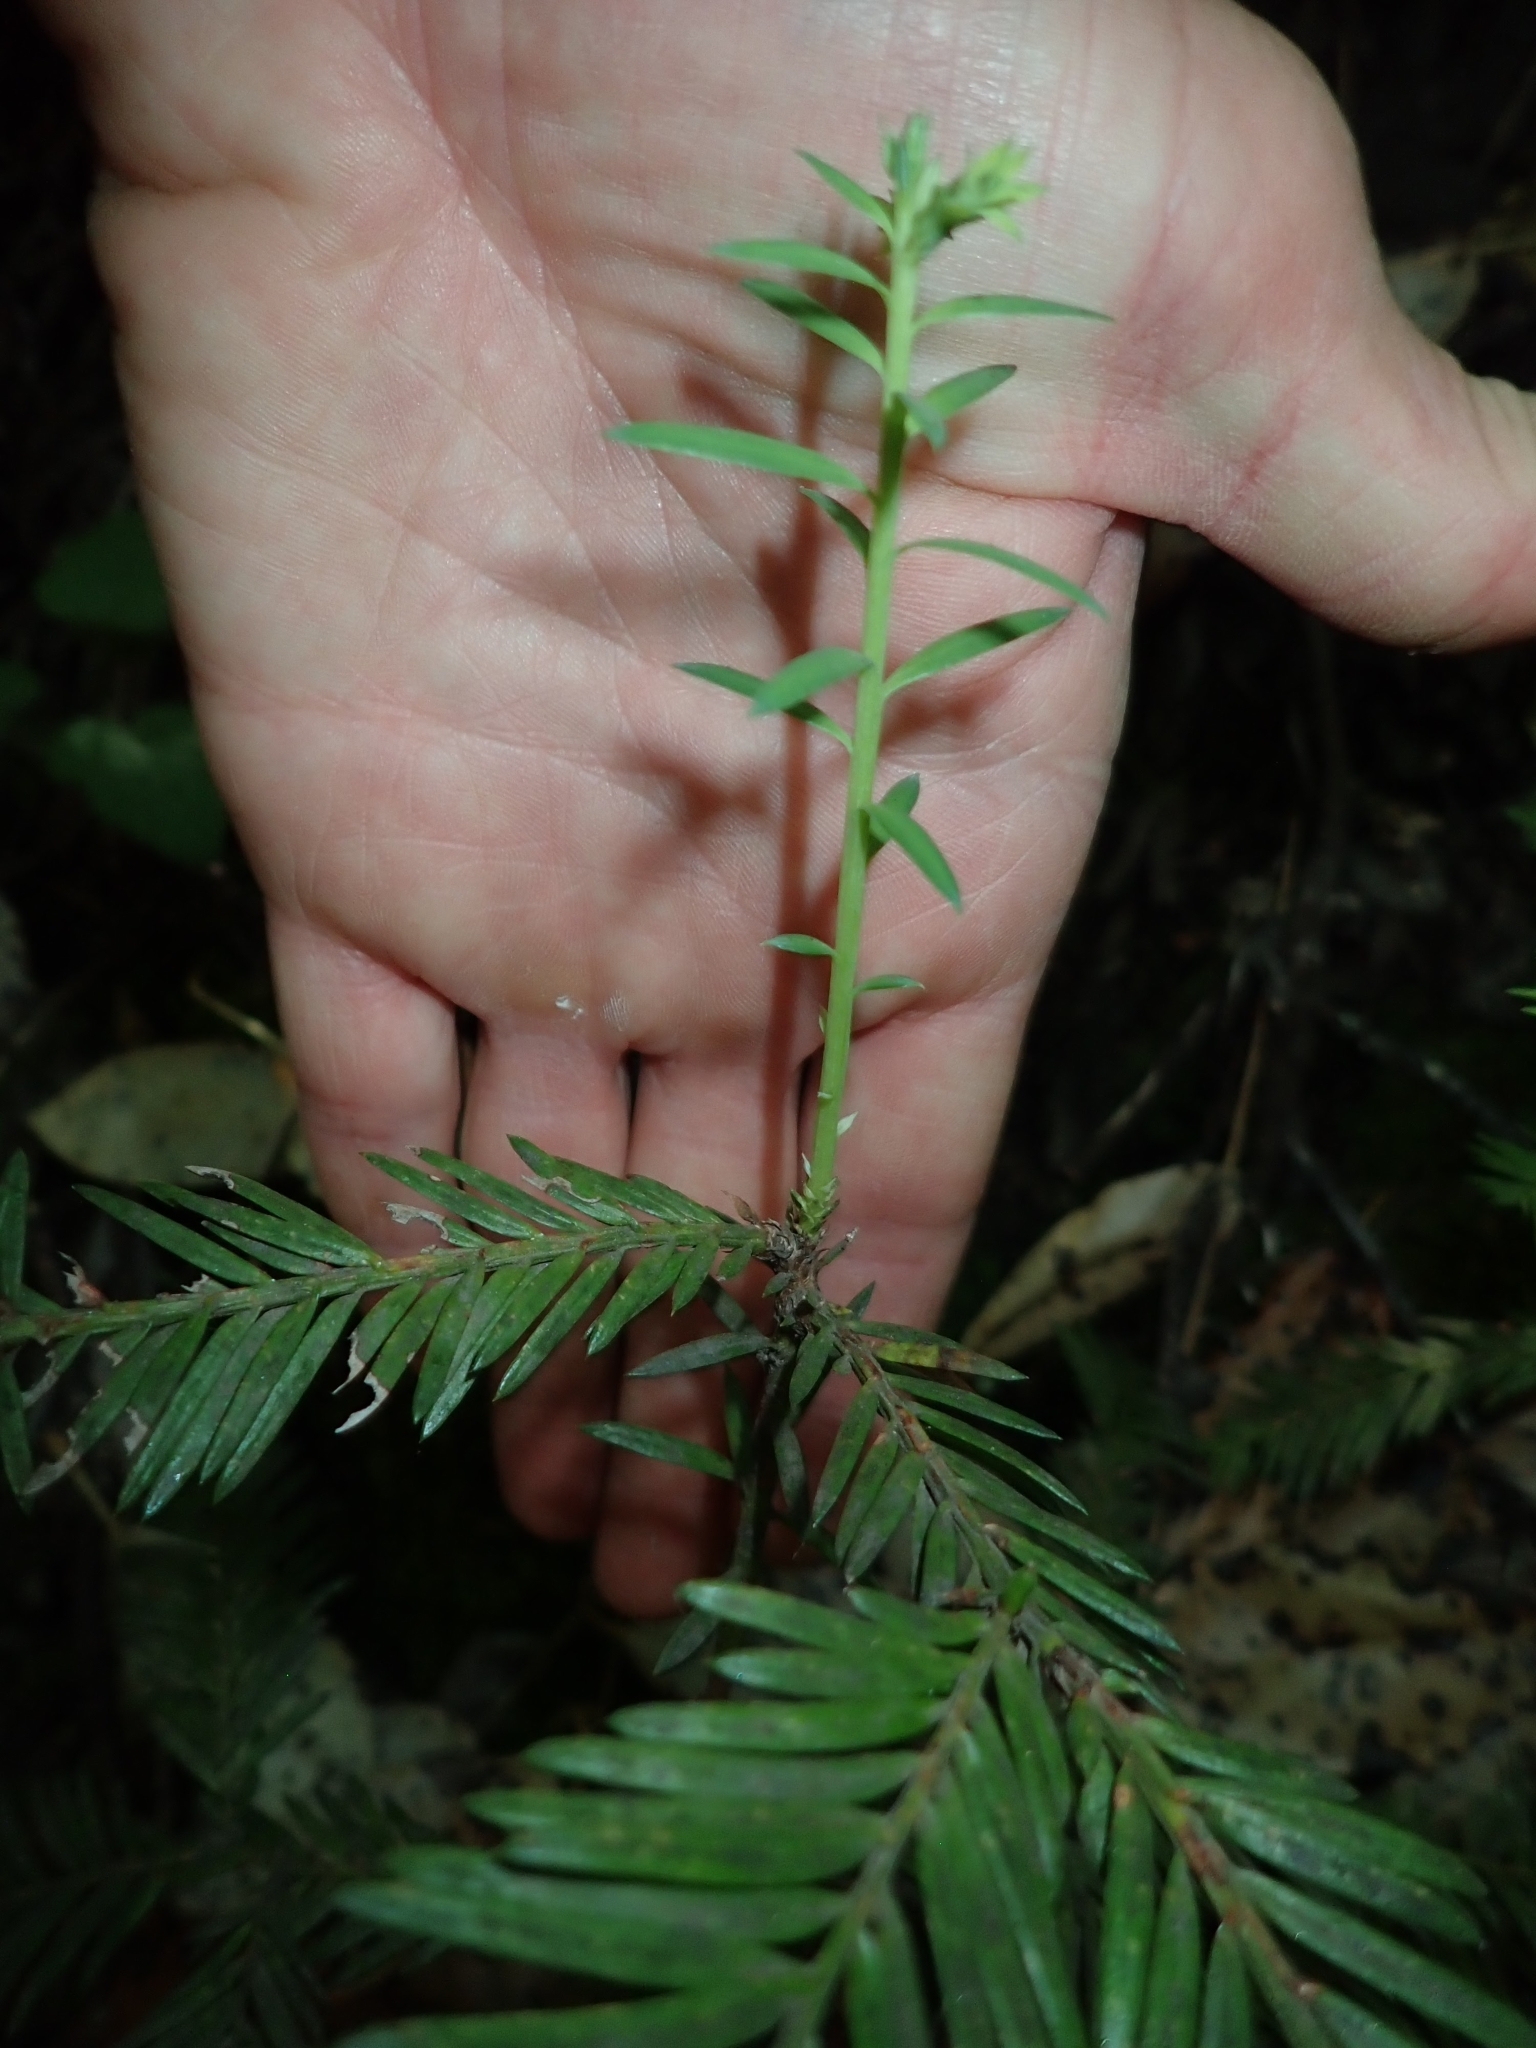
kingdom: Plantae
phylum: Tracheophyta
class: Pinopsida
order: Pinales
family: Cupressaceae
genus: Sequoia
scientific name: Sequoia sempervirens
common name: Coast redwood
